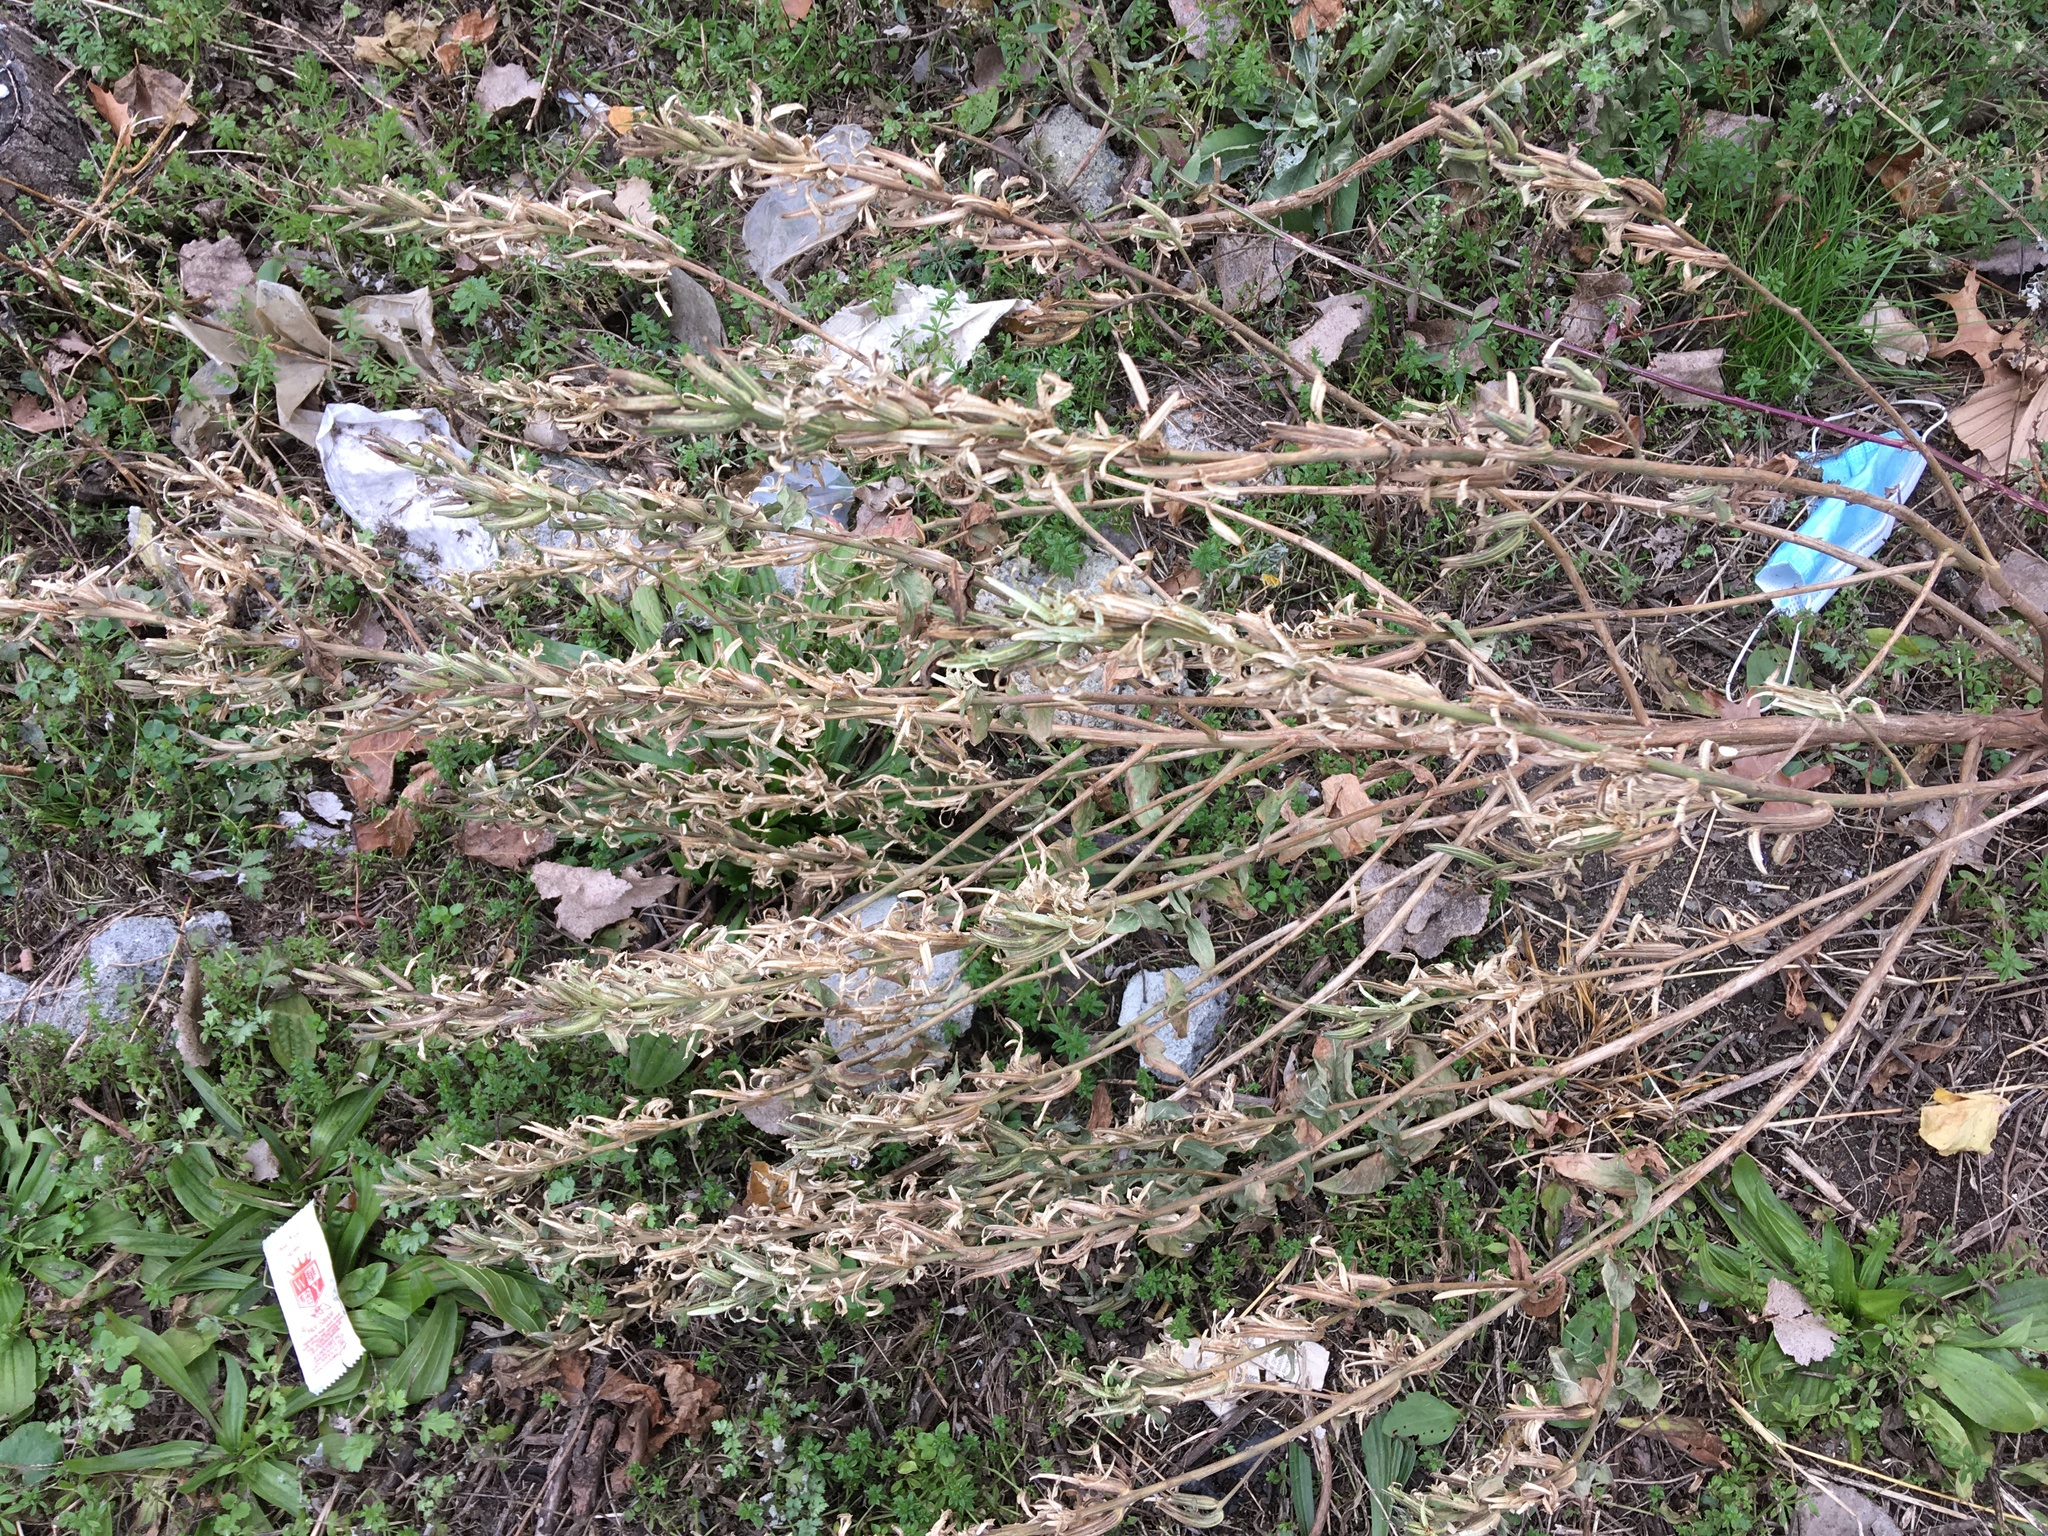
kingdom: Plantae
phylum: Tracheophyta
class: Magnoliopsida
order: Myrtales
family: Onagraceae
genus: Oenothera
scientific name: Oenothera biennis
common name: Common evening-primrose
